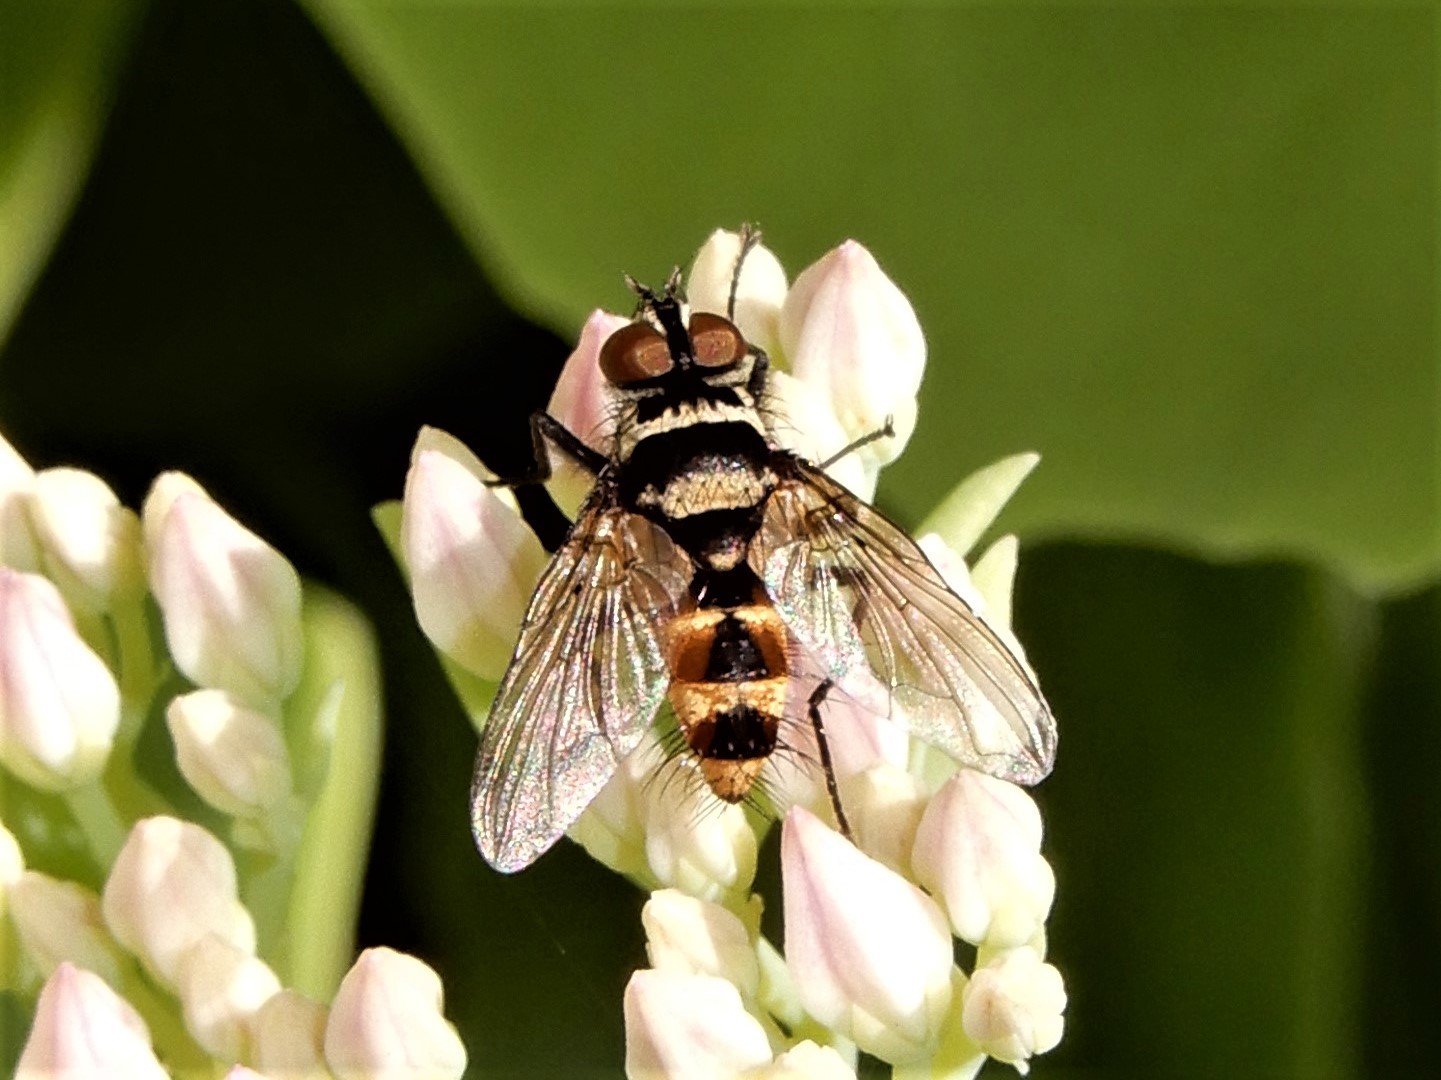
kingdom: Animalia
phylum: Arthropoda
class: Insecta
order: Diptera
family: Tachinidae
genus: Trigonospila
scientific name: Trigonospila brevifacies
